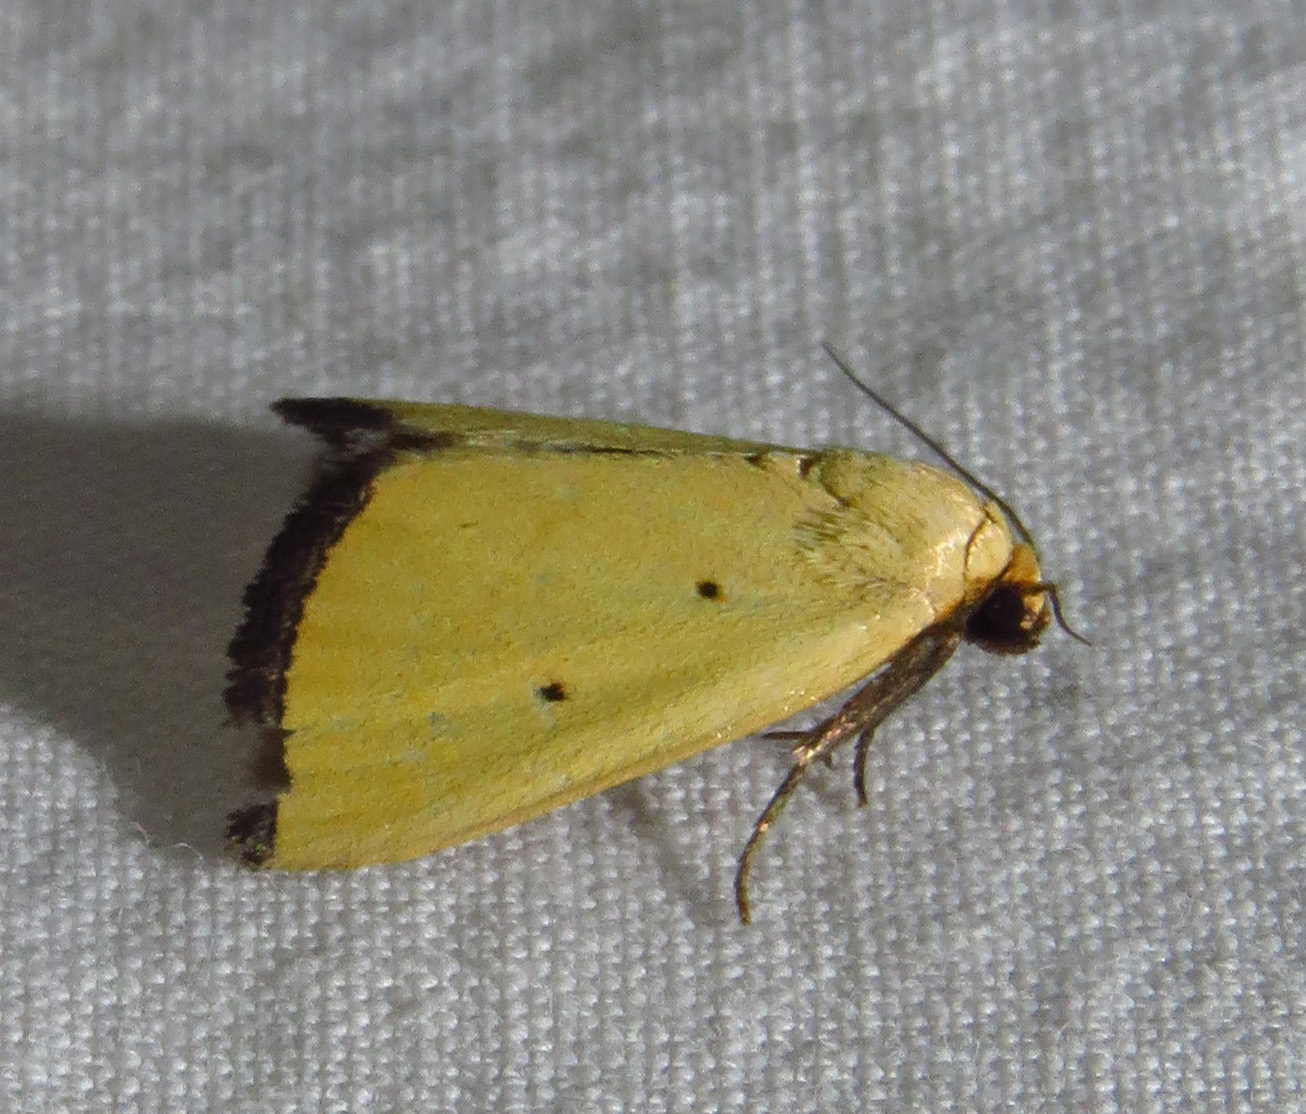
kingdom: Animalia
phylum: Arthropoda
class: Insecta
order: Lepidoptera
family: Noctuidae
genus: Marimatha
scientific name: Marimatha nigrofimbria
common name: Black-bordered lemon moth
